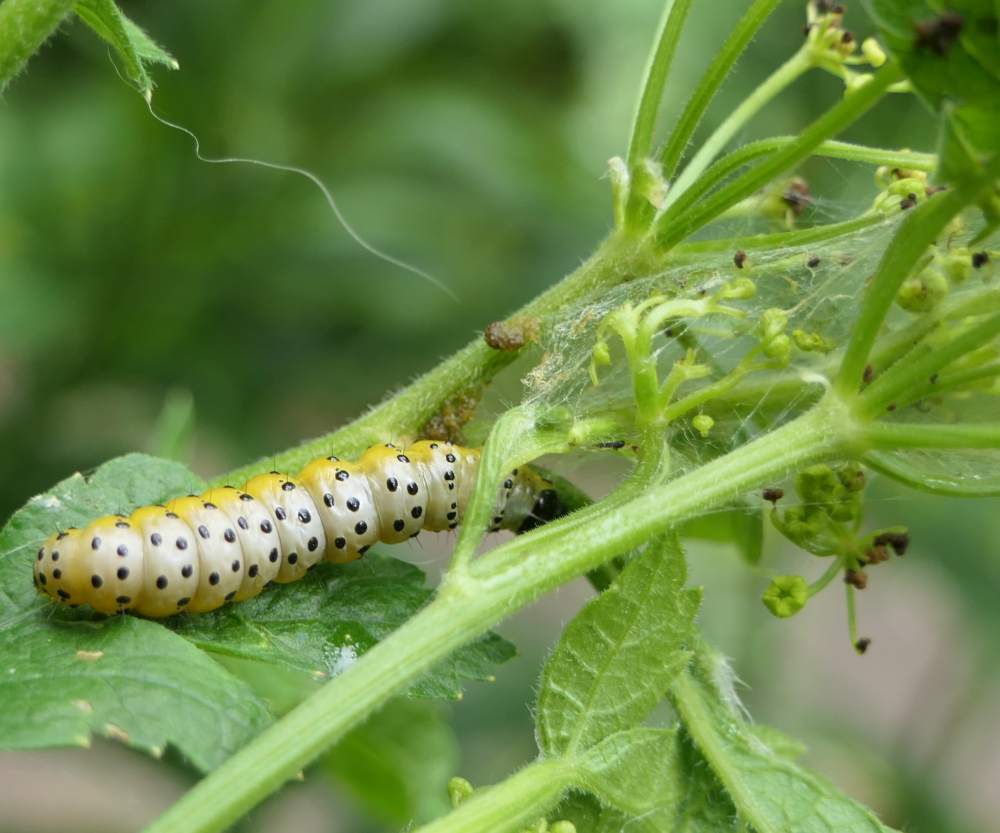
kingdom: Animalia
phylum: Arthropoda
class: Insecta
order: Lepidoptera
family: Depressariidae
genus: Depressaria
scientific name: Depressaria radiella
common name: Parsnip moth
